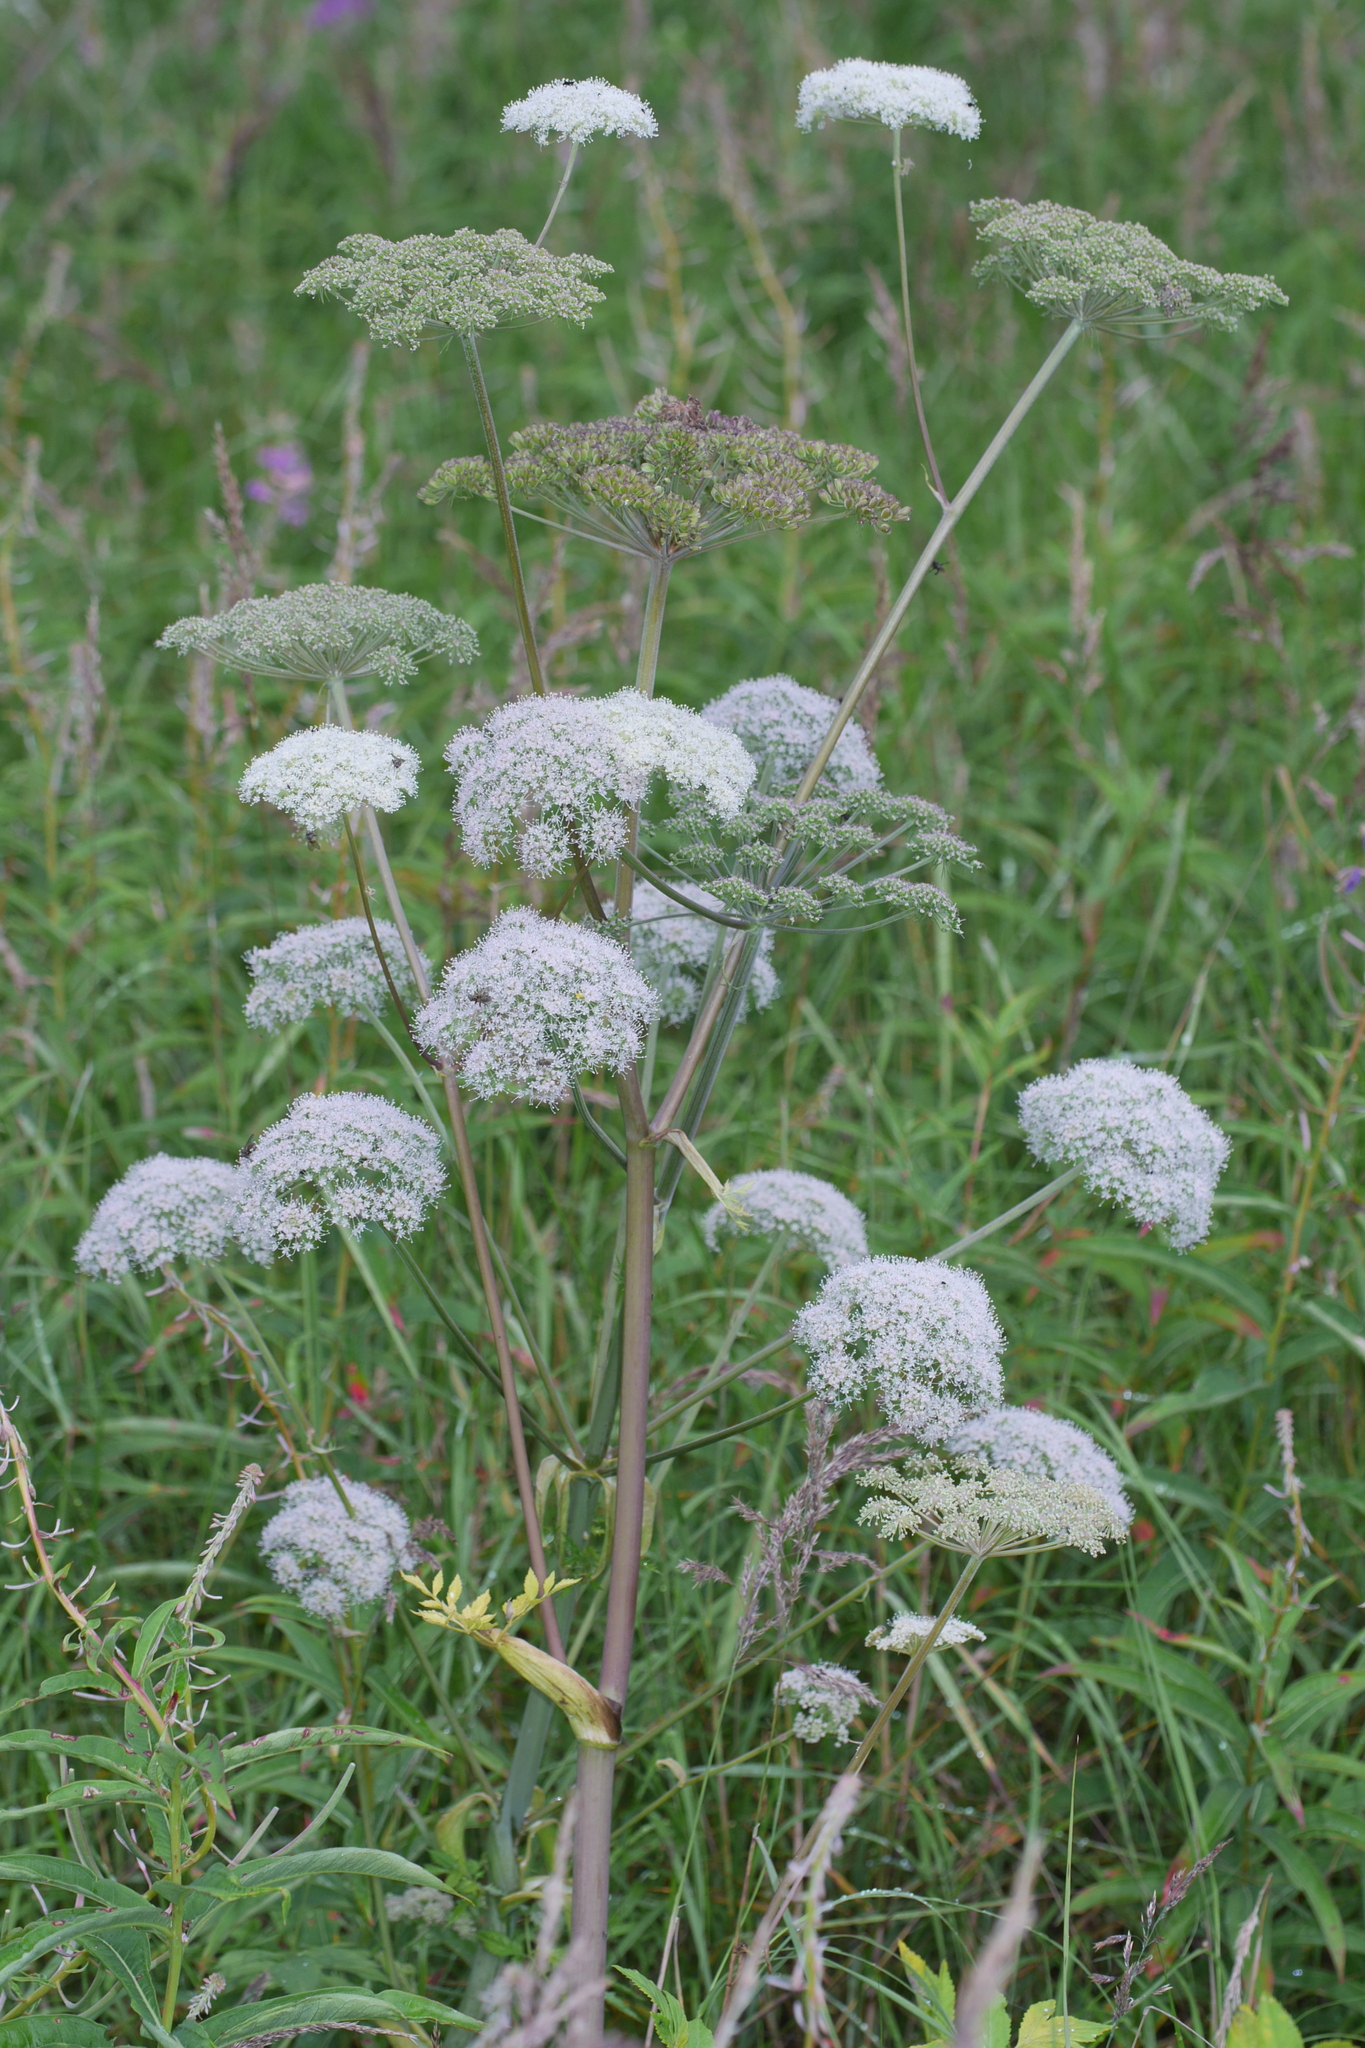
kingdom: Plantae
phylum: Tracheophyta
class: Magnoliopsida
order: Apiales
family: Apiaceae
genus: Angelica
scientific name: Angelica sylvestris
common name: Wild angelica
